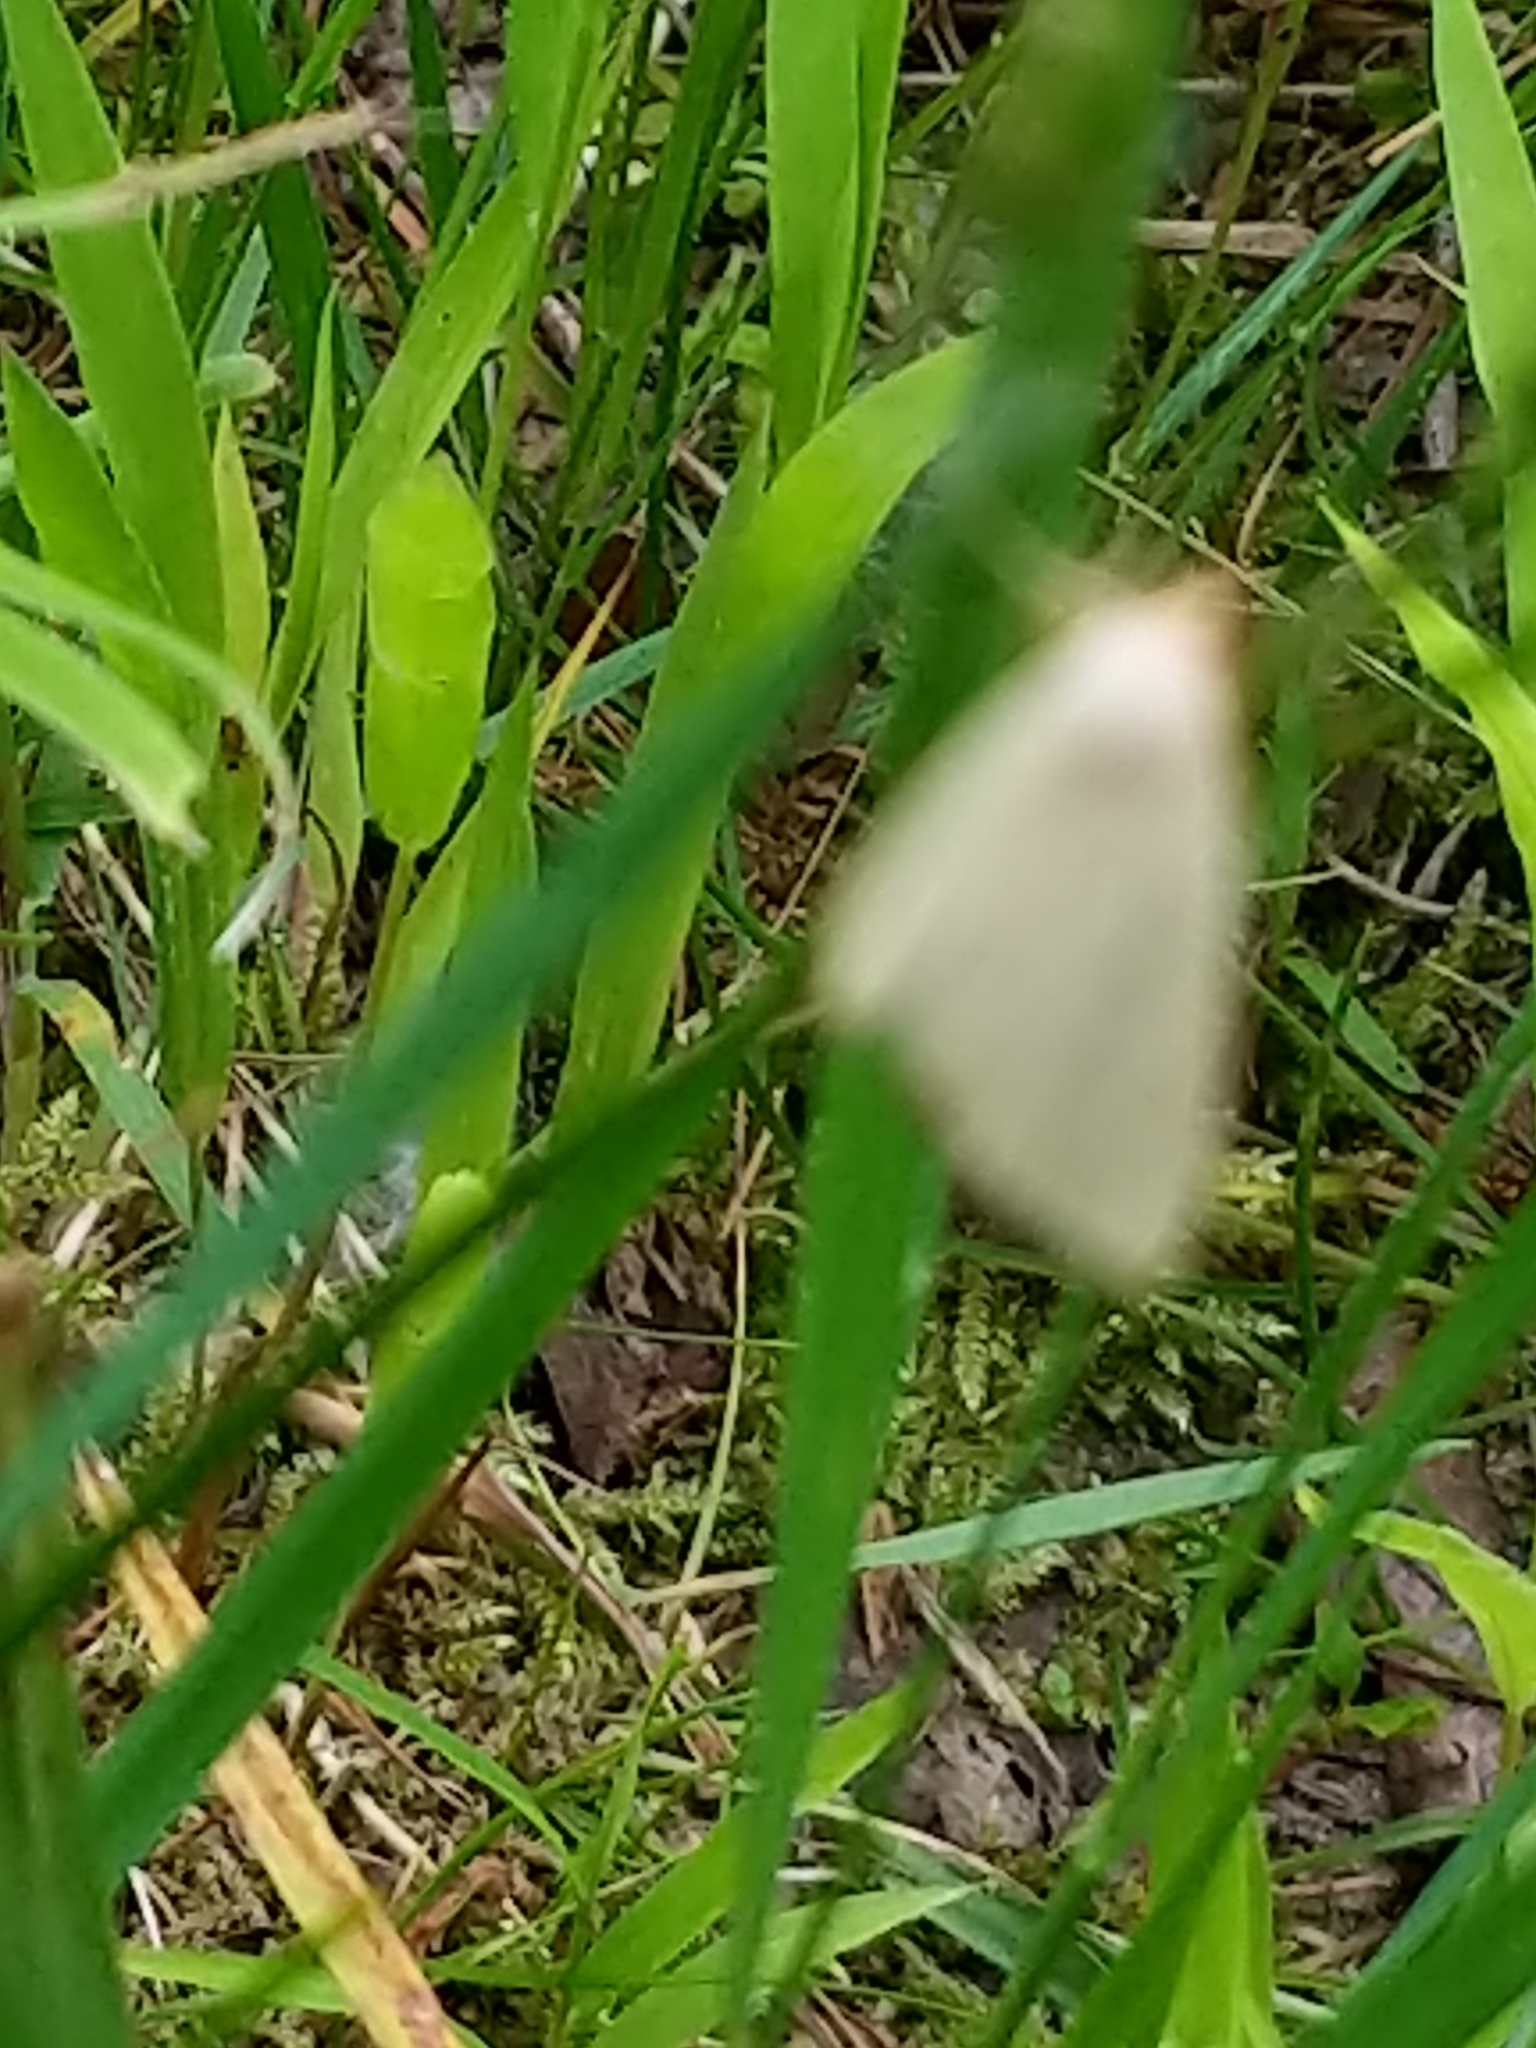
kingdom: Animalia
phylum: Arthropoda
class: Insecta
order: Lepidoptera
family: Noctuidae
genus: Marimatha
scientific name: Marimatha nigrofimbria
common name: Black-bordered lemon moth
